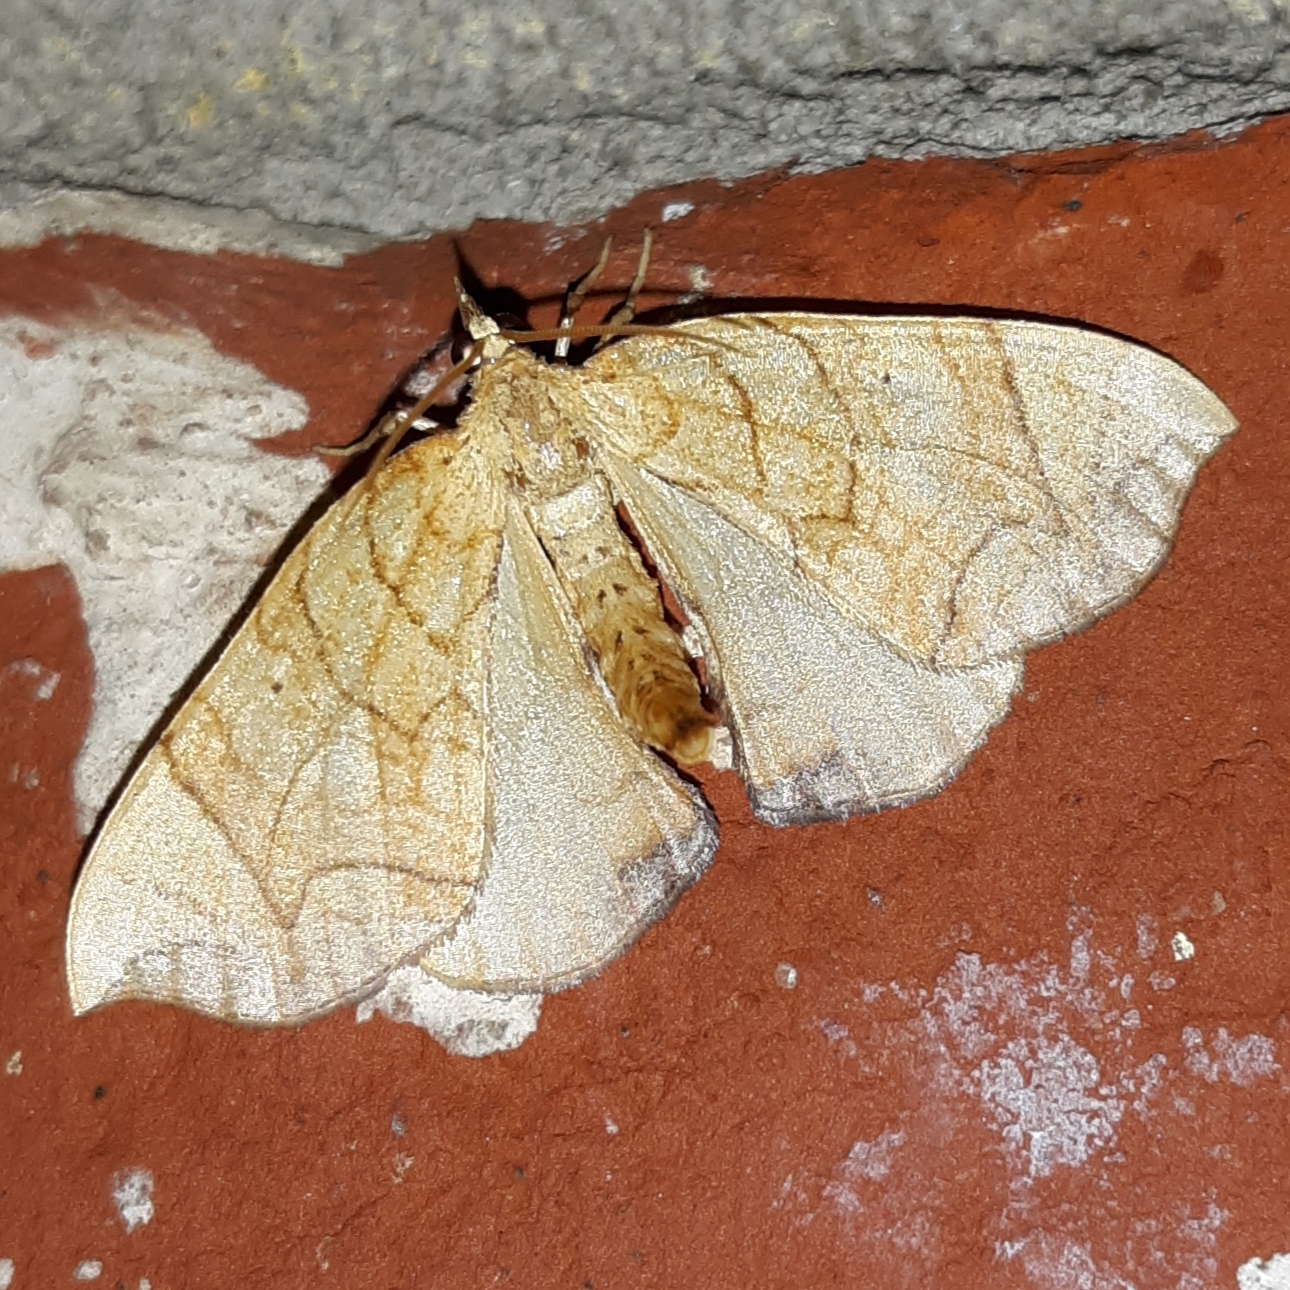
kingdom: Animalia
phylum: Arthropoda
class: Insecta
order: Lepidoptera
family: Geometridae
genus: Eulithis
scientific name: Eulithis
